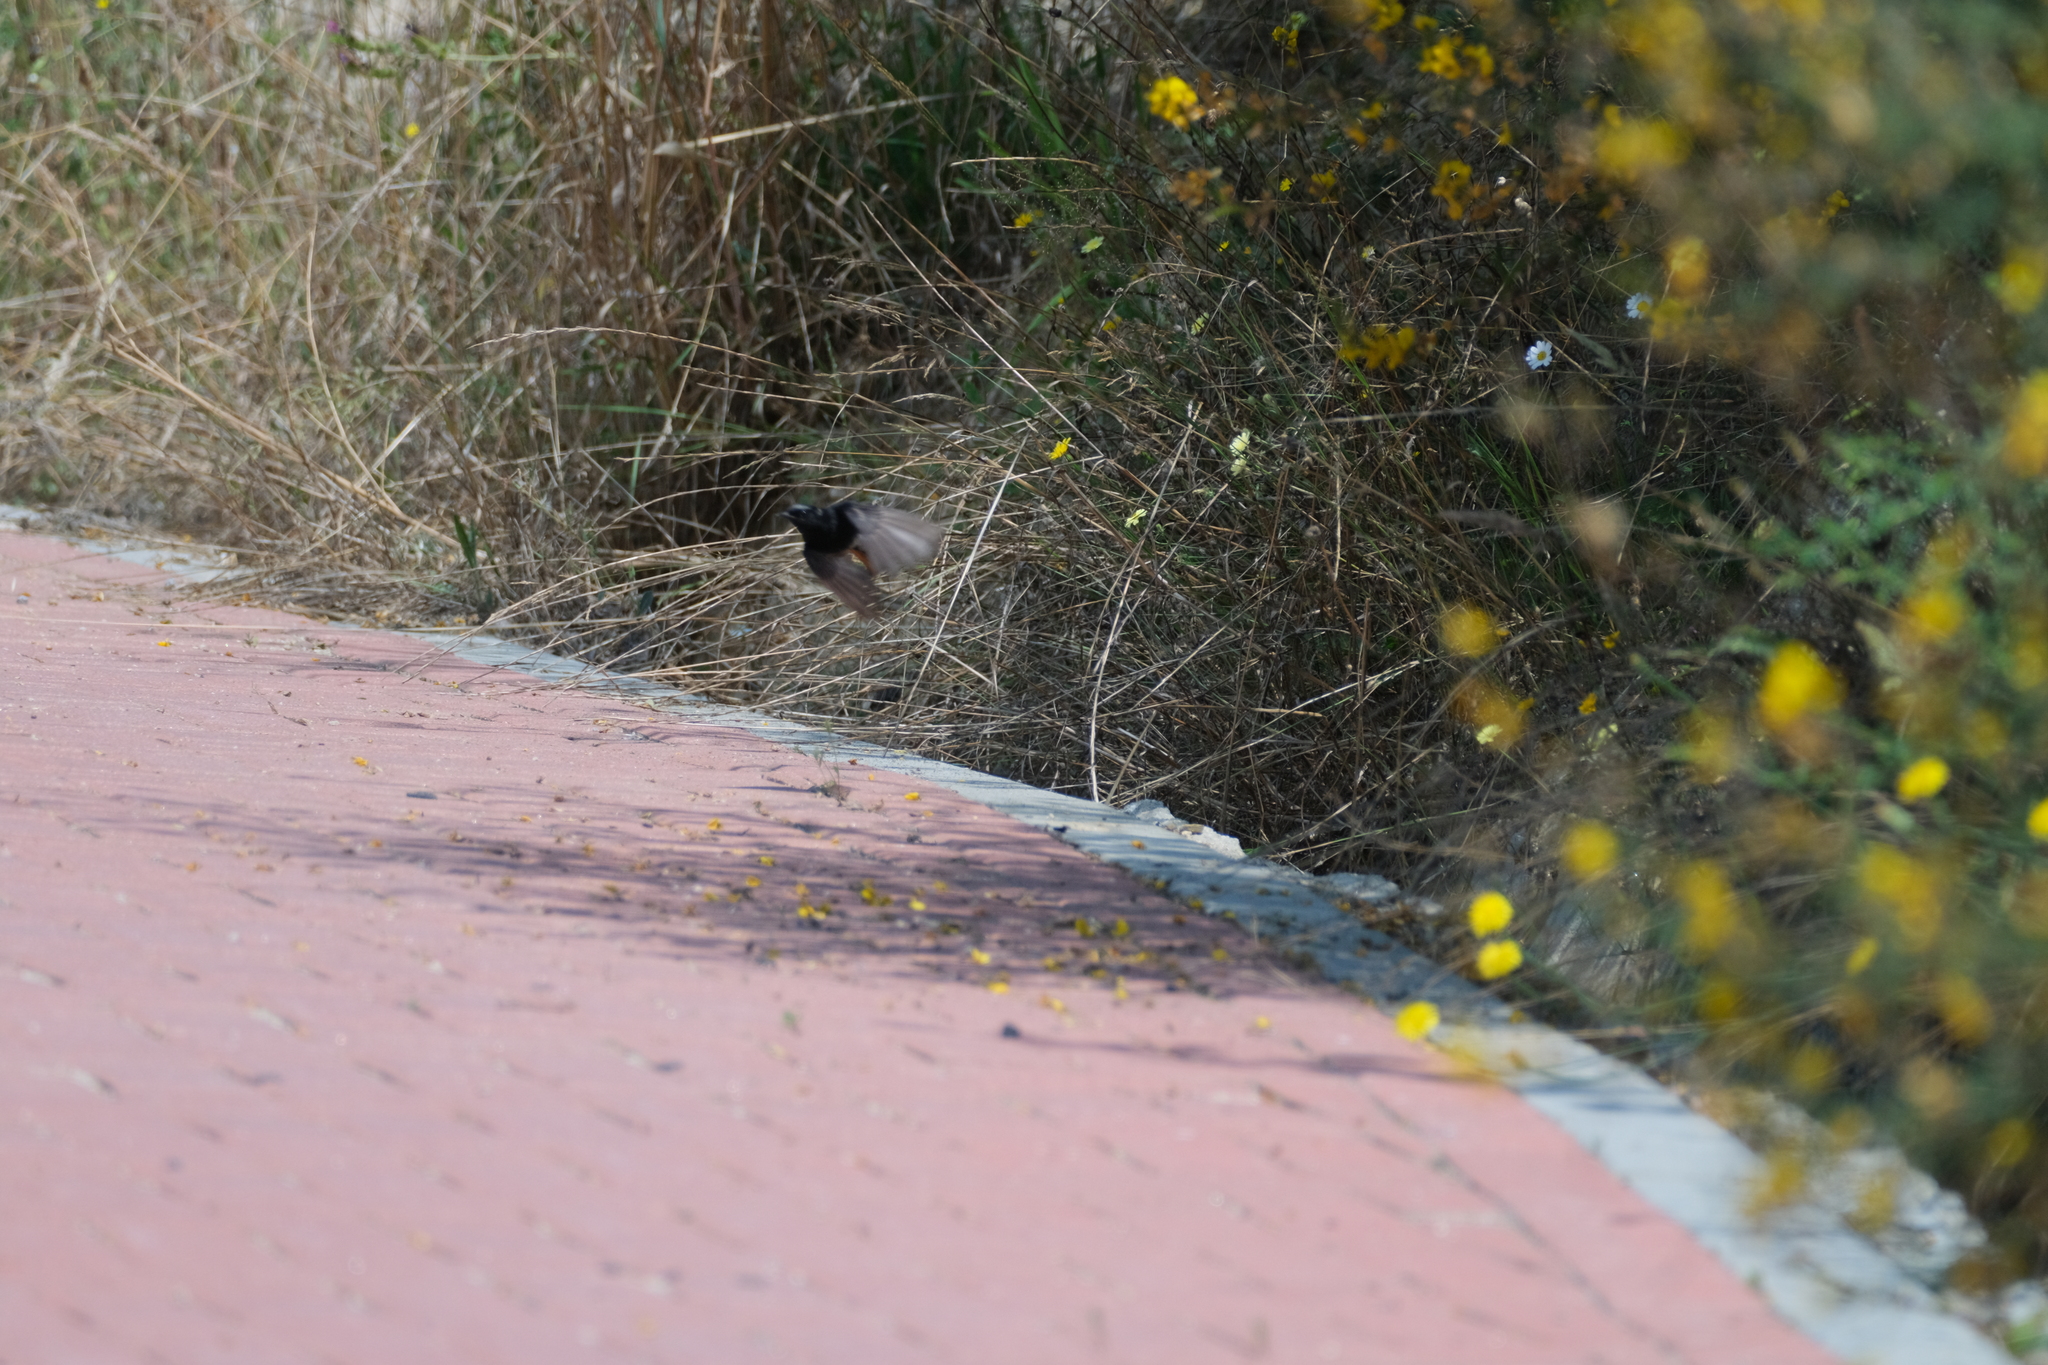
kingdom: Animalia
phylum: Chordata
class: Aves
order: Passeriformes
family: Muscicapidae
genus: Phoenicurus
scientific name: Phoenicurus ochruros
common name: Black redstart
